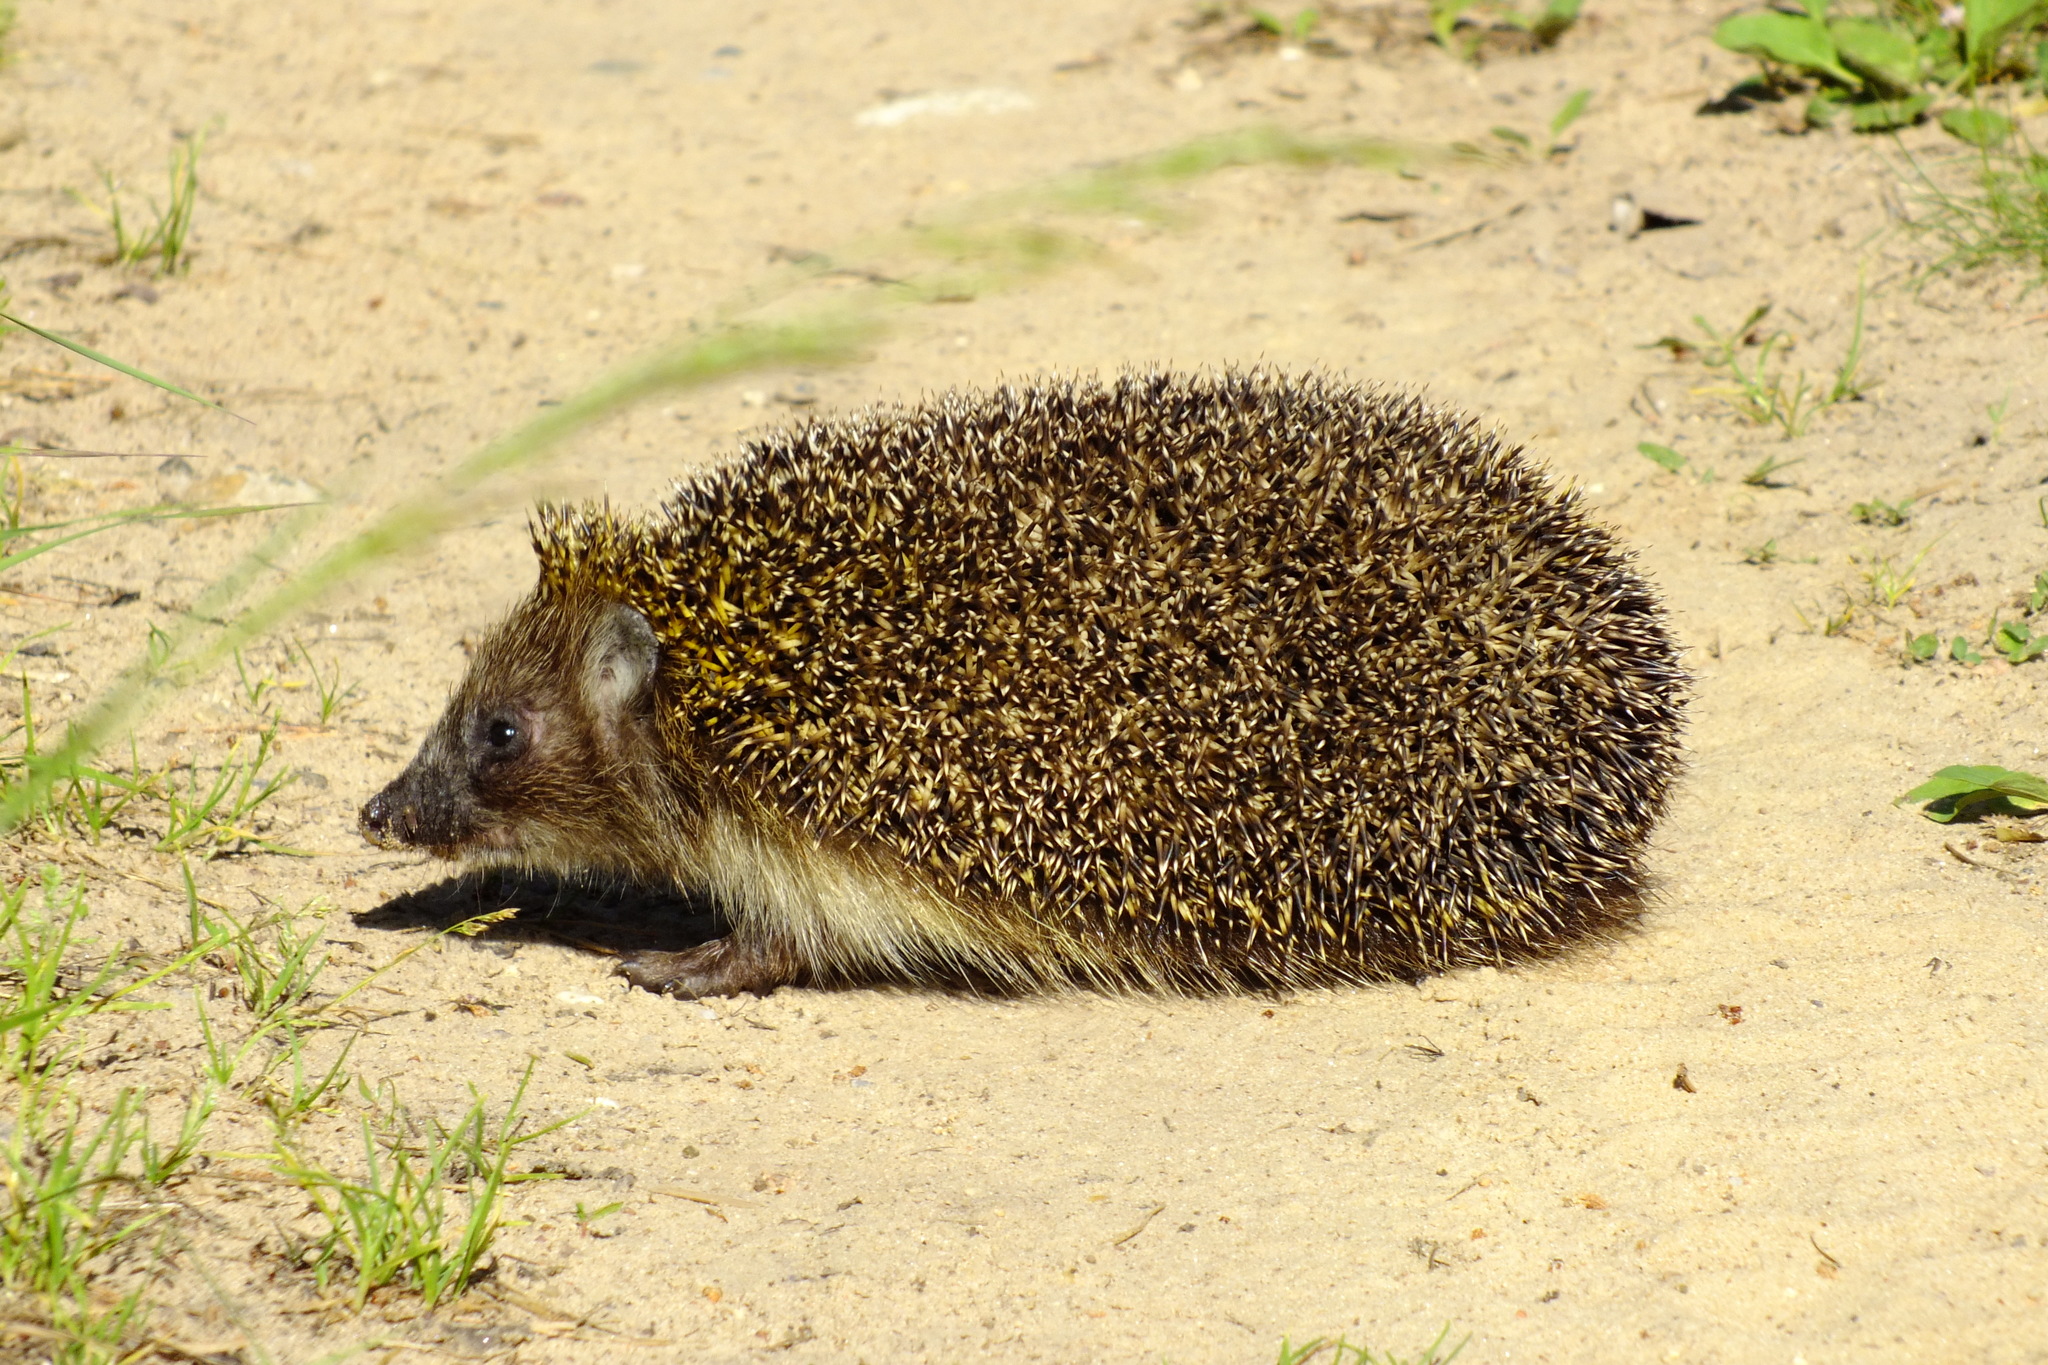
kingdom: Animalia
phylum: Chordata
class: Mammalia
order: Erinaceomorpha
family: Erinaceidae
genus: Erinaceus
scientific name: Erinaceus roumanicus
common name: Northern white-breasted hedgehog
